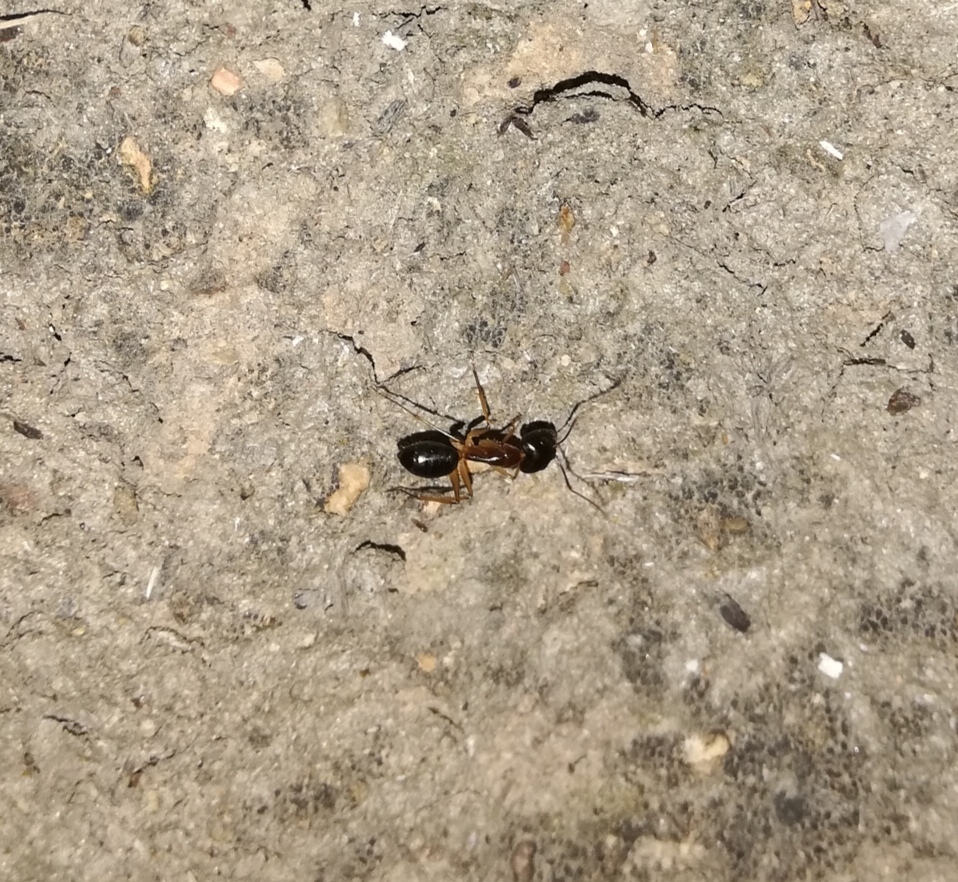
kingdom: Animalia
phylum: Arthropoda
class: Insecta
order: Hymenoptera
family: Formicidae
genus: Camponotus
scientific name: Camponotus
